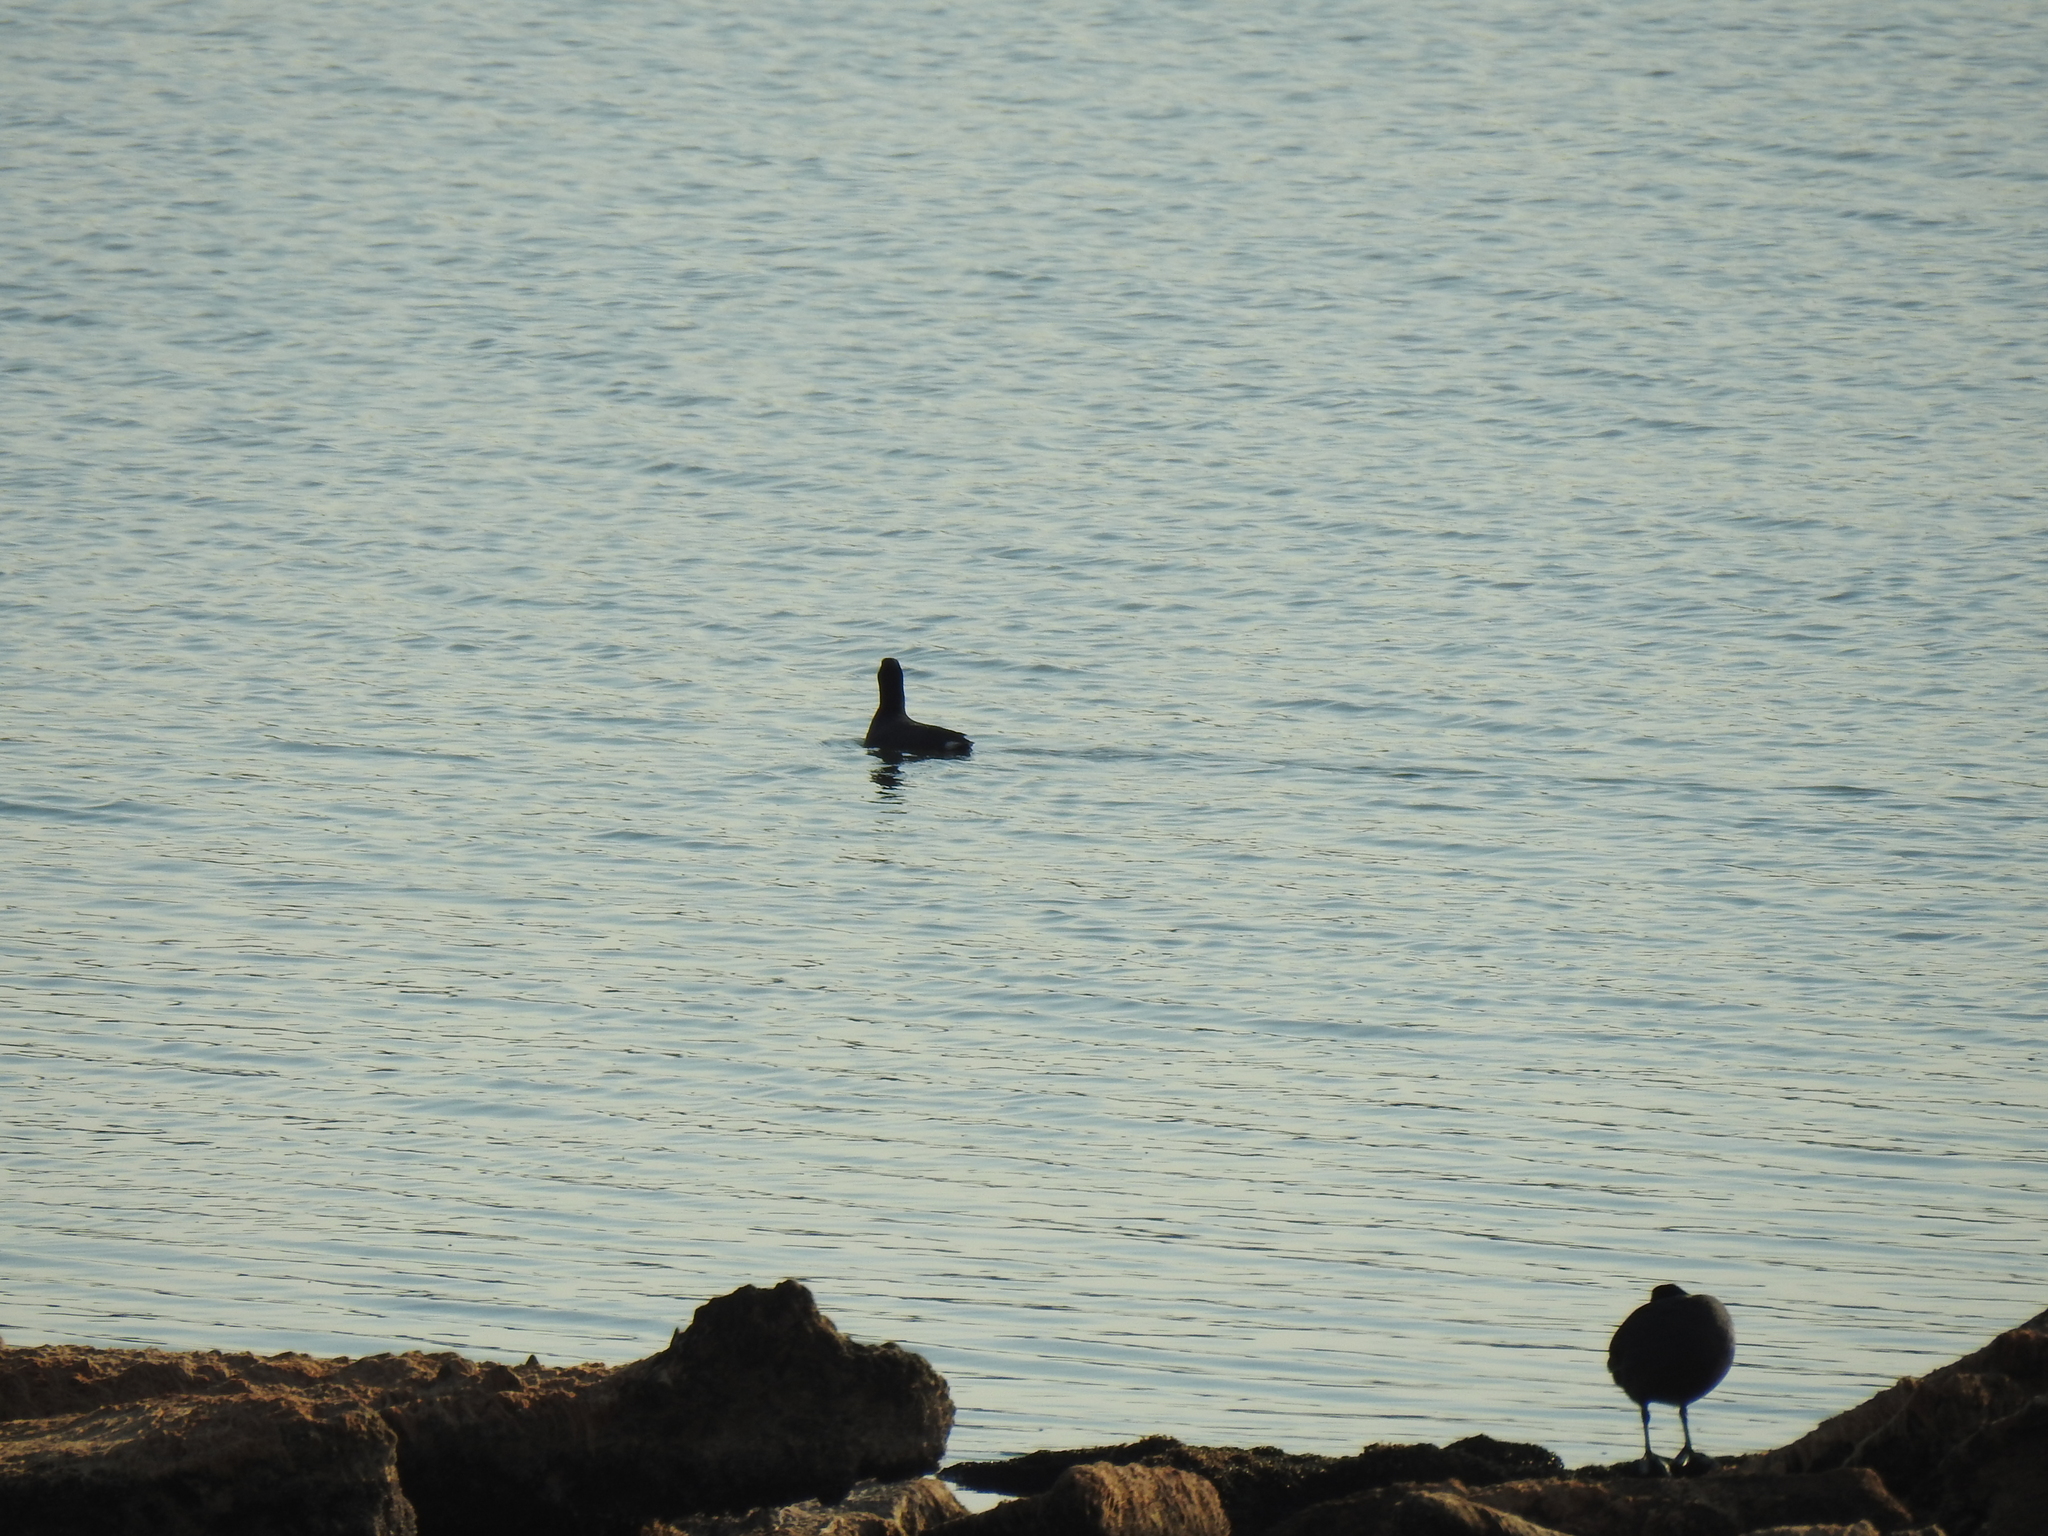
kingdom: Animalia
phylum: Chordata
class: Aves
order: Gruiformes
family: Rallidae
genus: Fulica
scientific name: Fulica americana
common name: American coot
